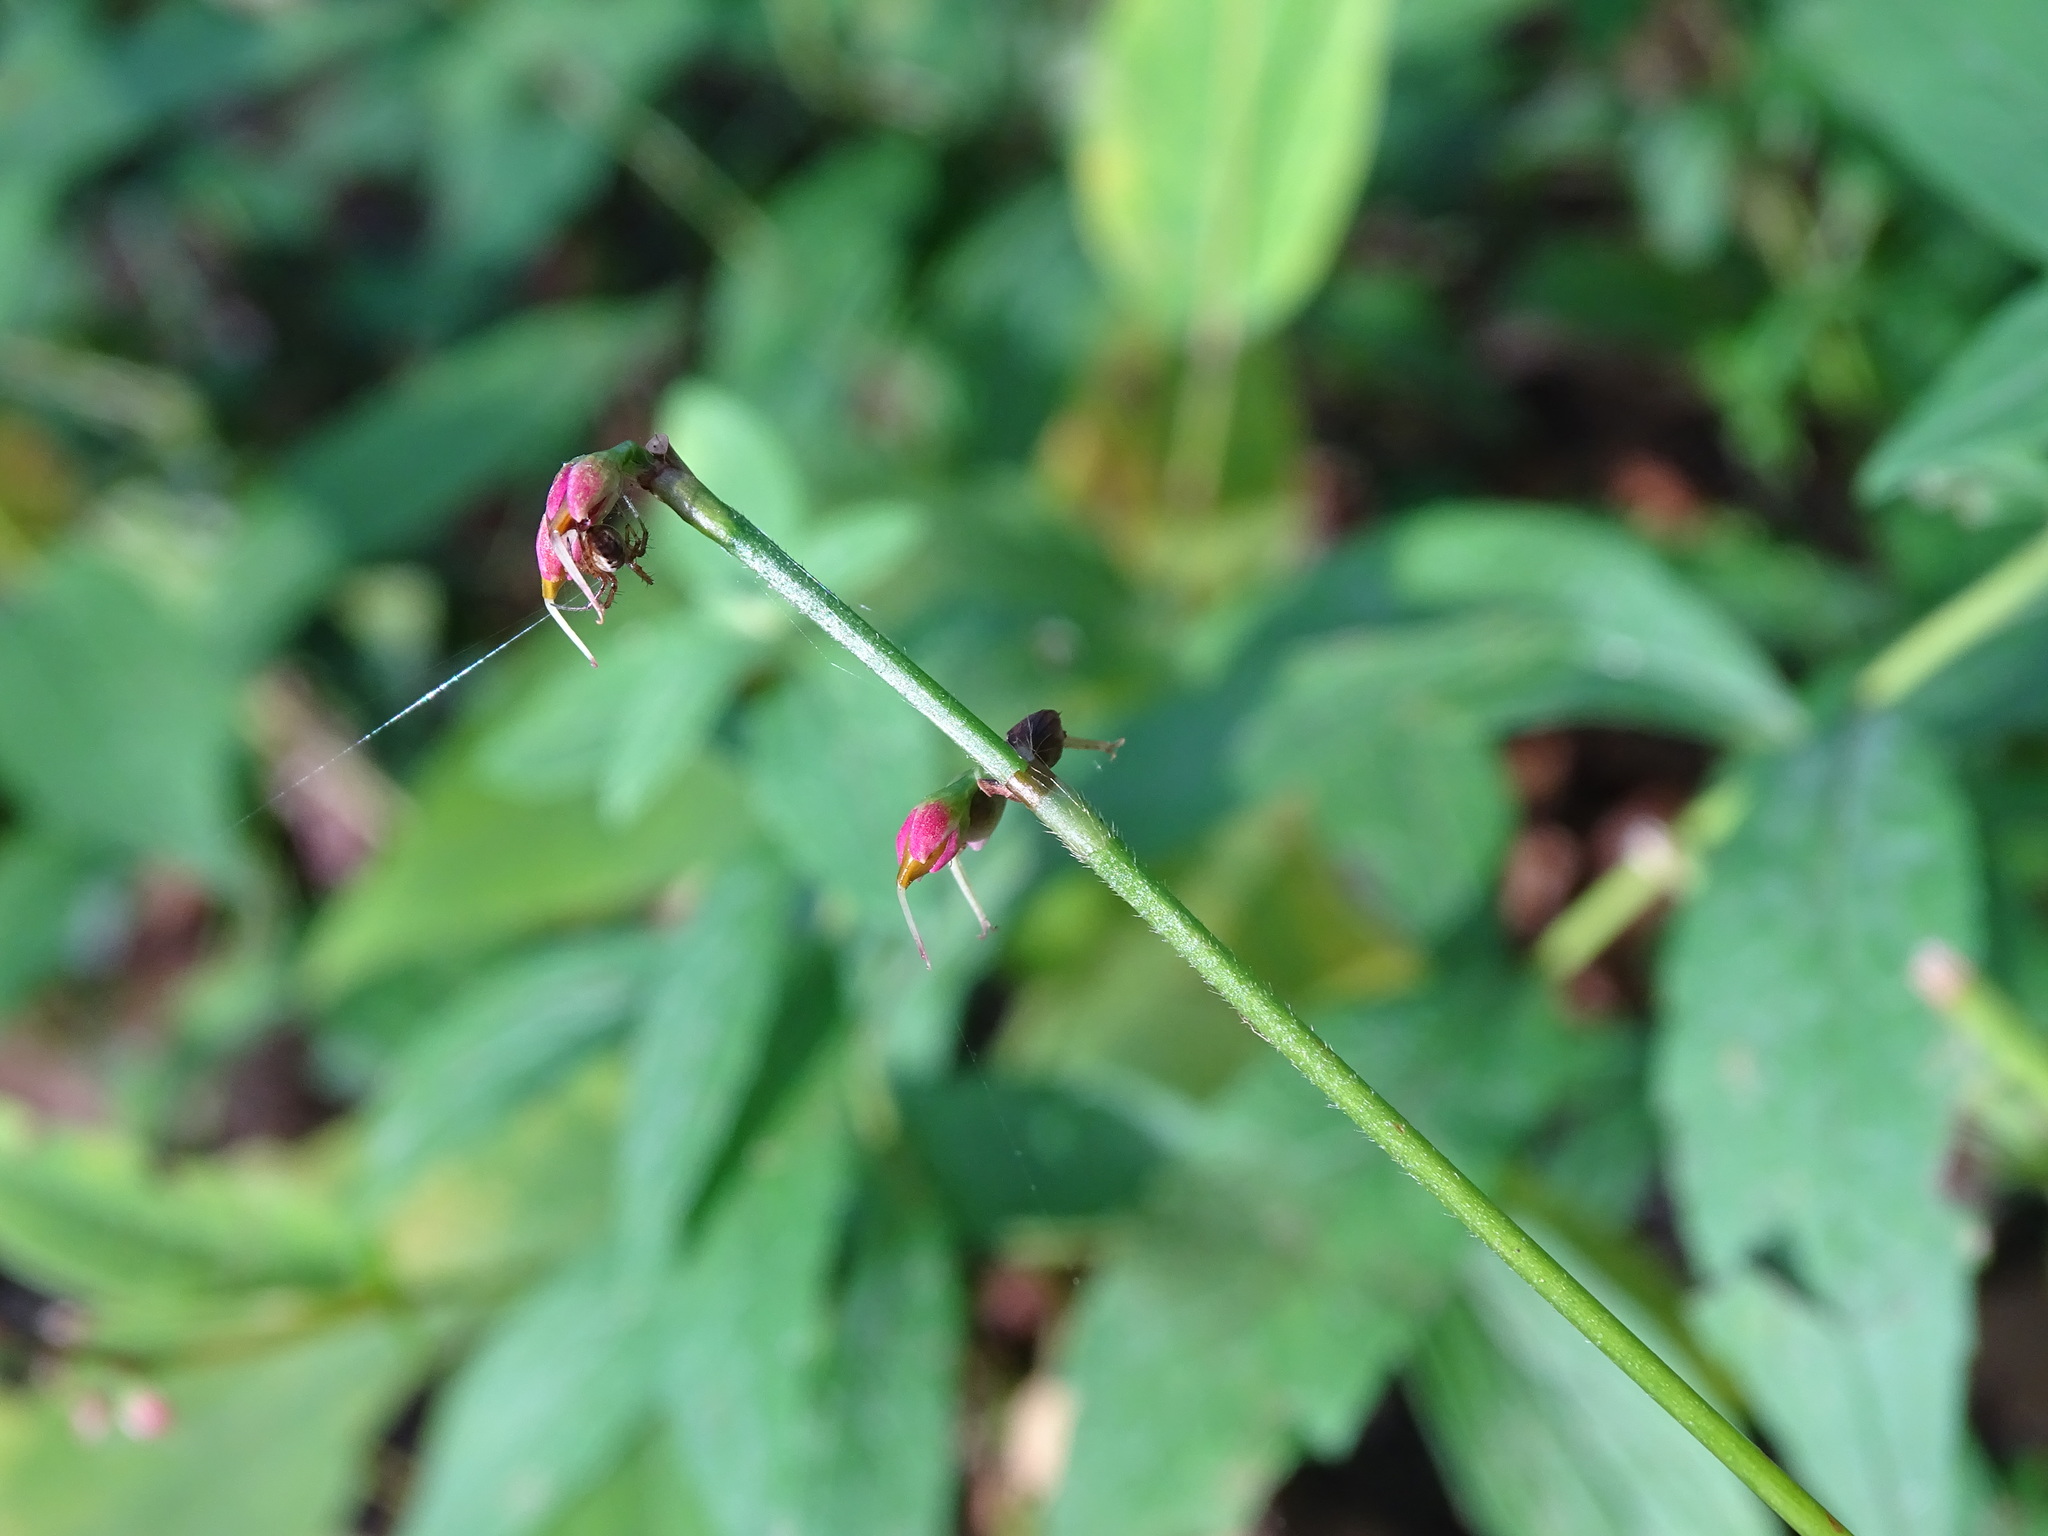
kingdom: Plantae
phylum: Tracheophyta
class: Magnoliopsida
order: Caryophyllales
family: Polygonaceae
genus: Persicaria
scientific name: Persicaria virginiana
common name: Jumpseed
